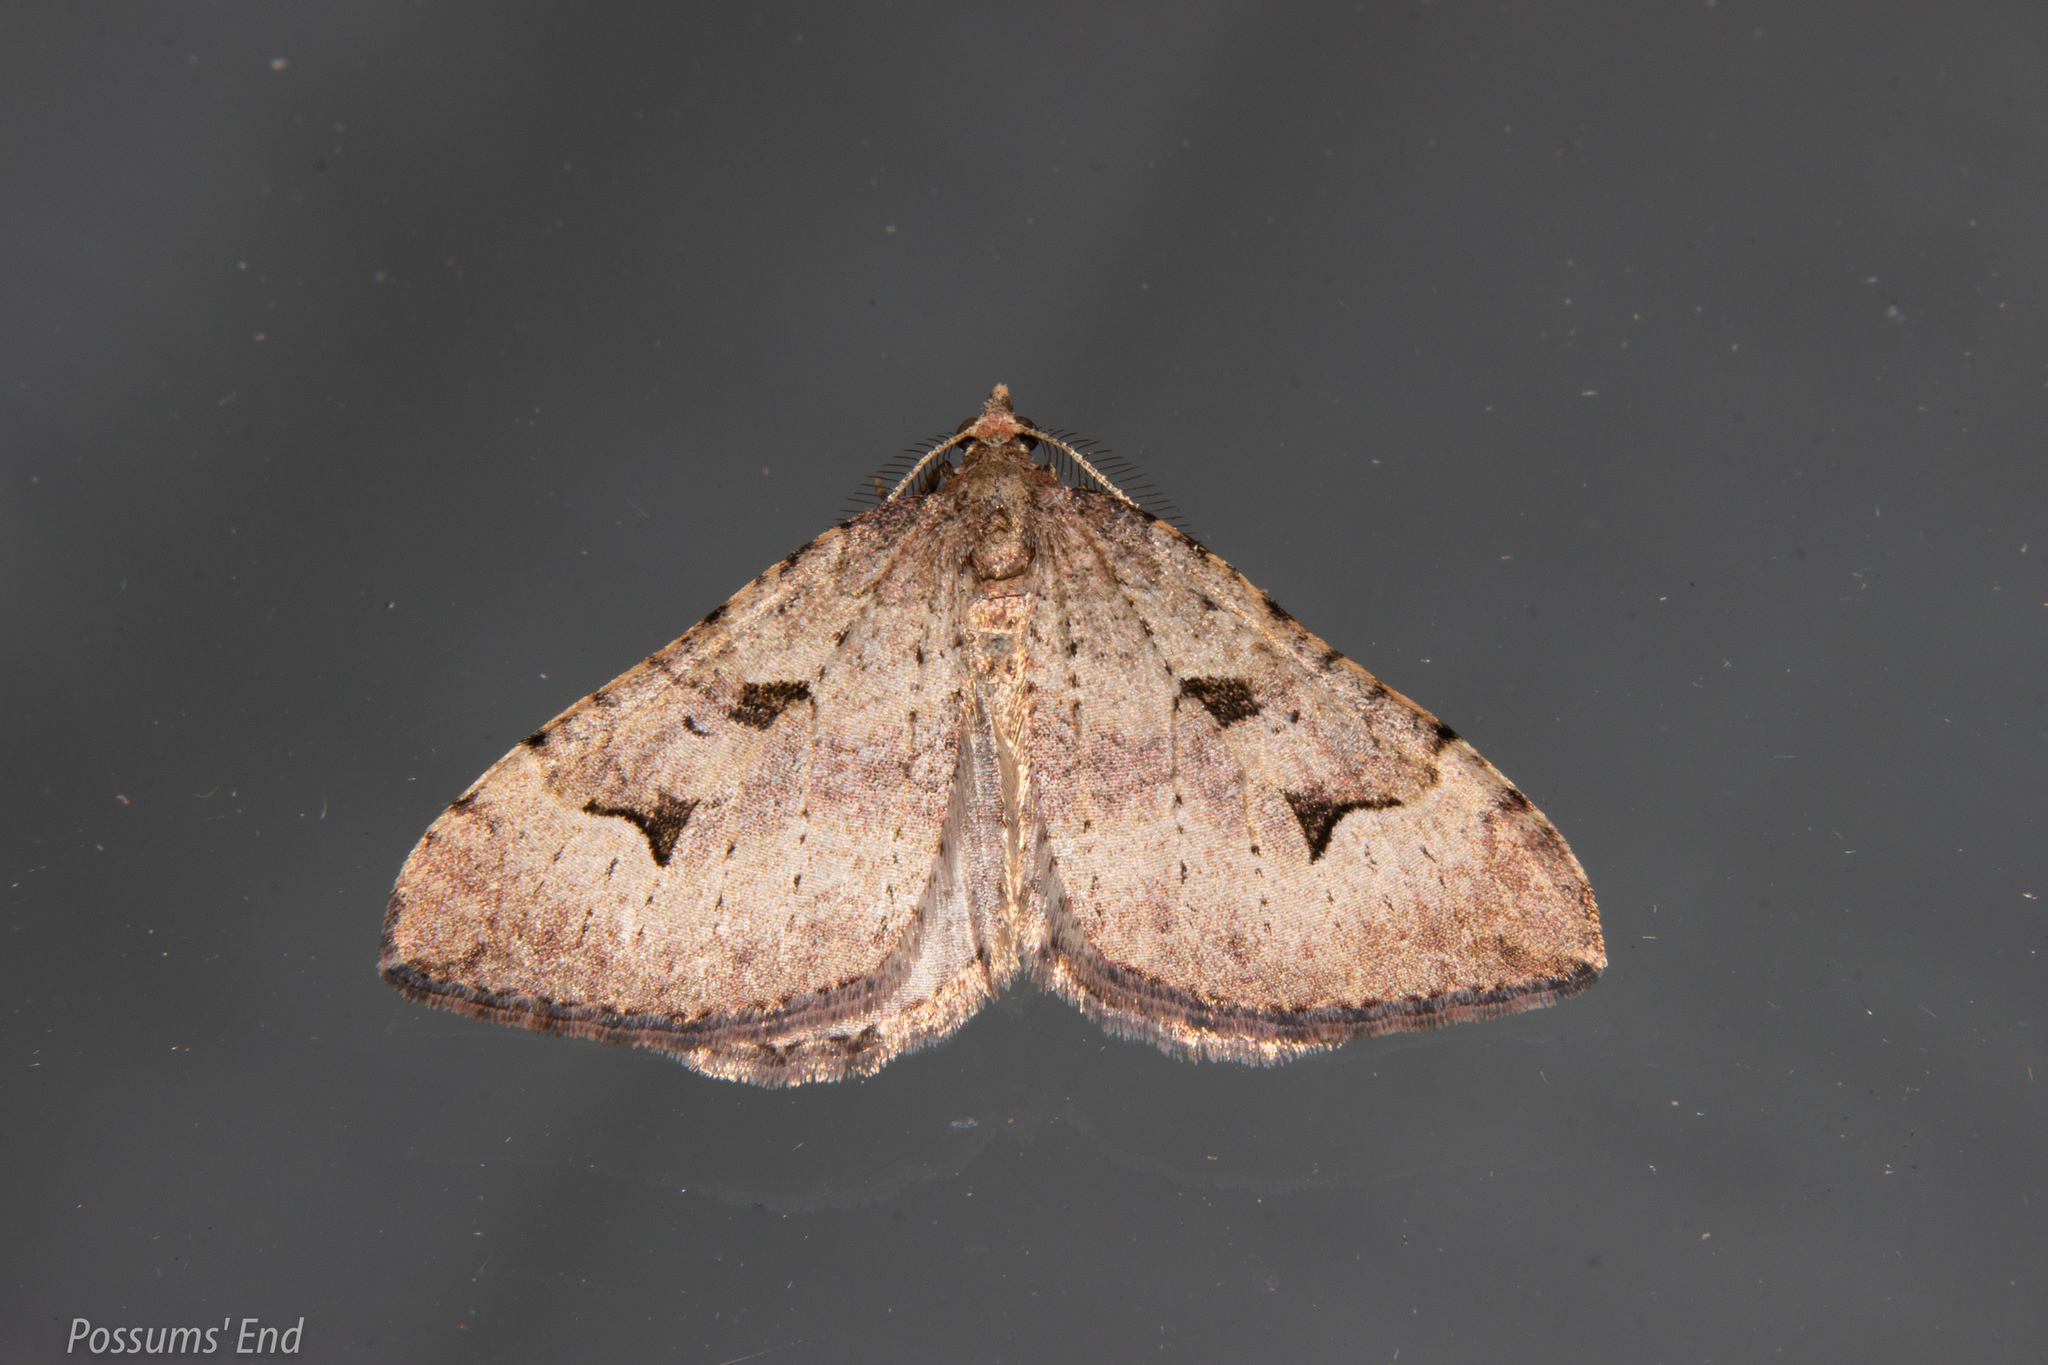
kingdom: Animalia
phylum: Arthropoda
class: Insecta
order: Lepidoptera
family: Geometridae
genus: Epyaxa
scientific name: Epyaxa rosearia
